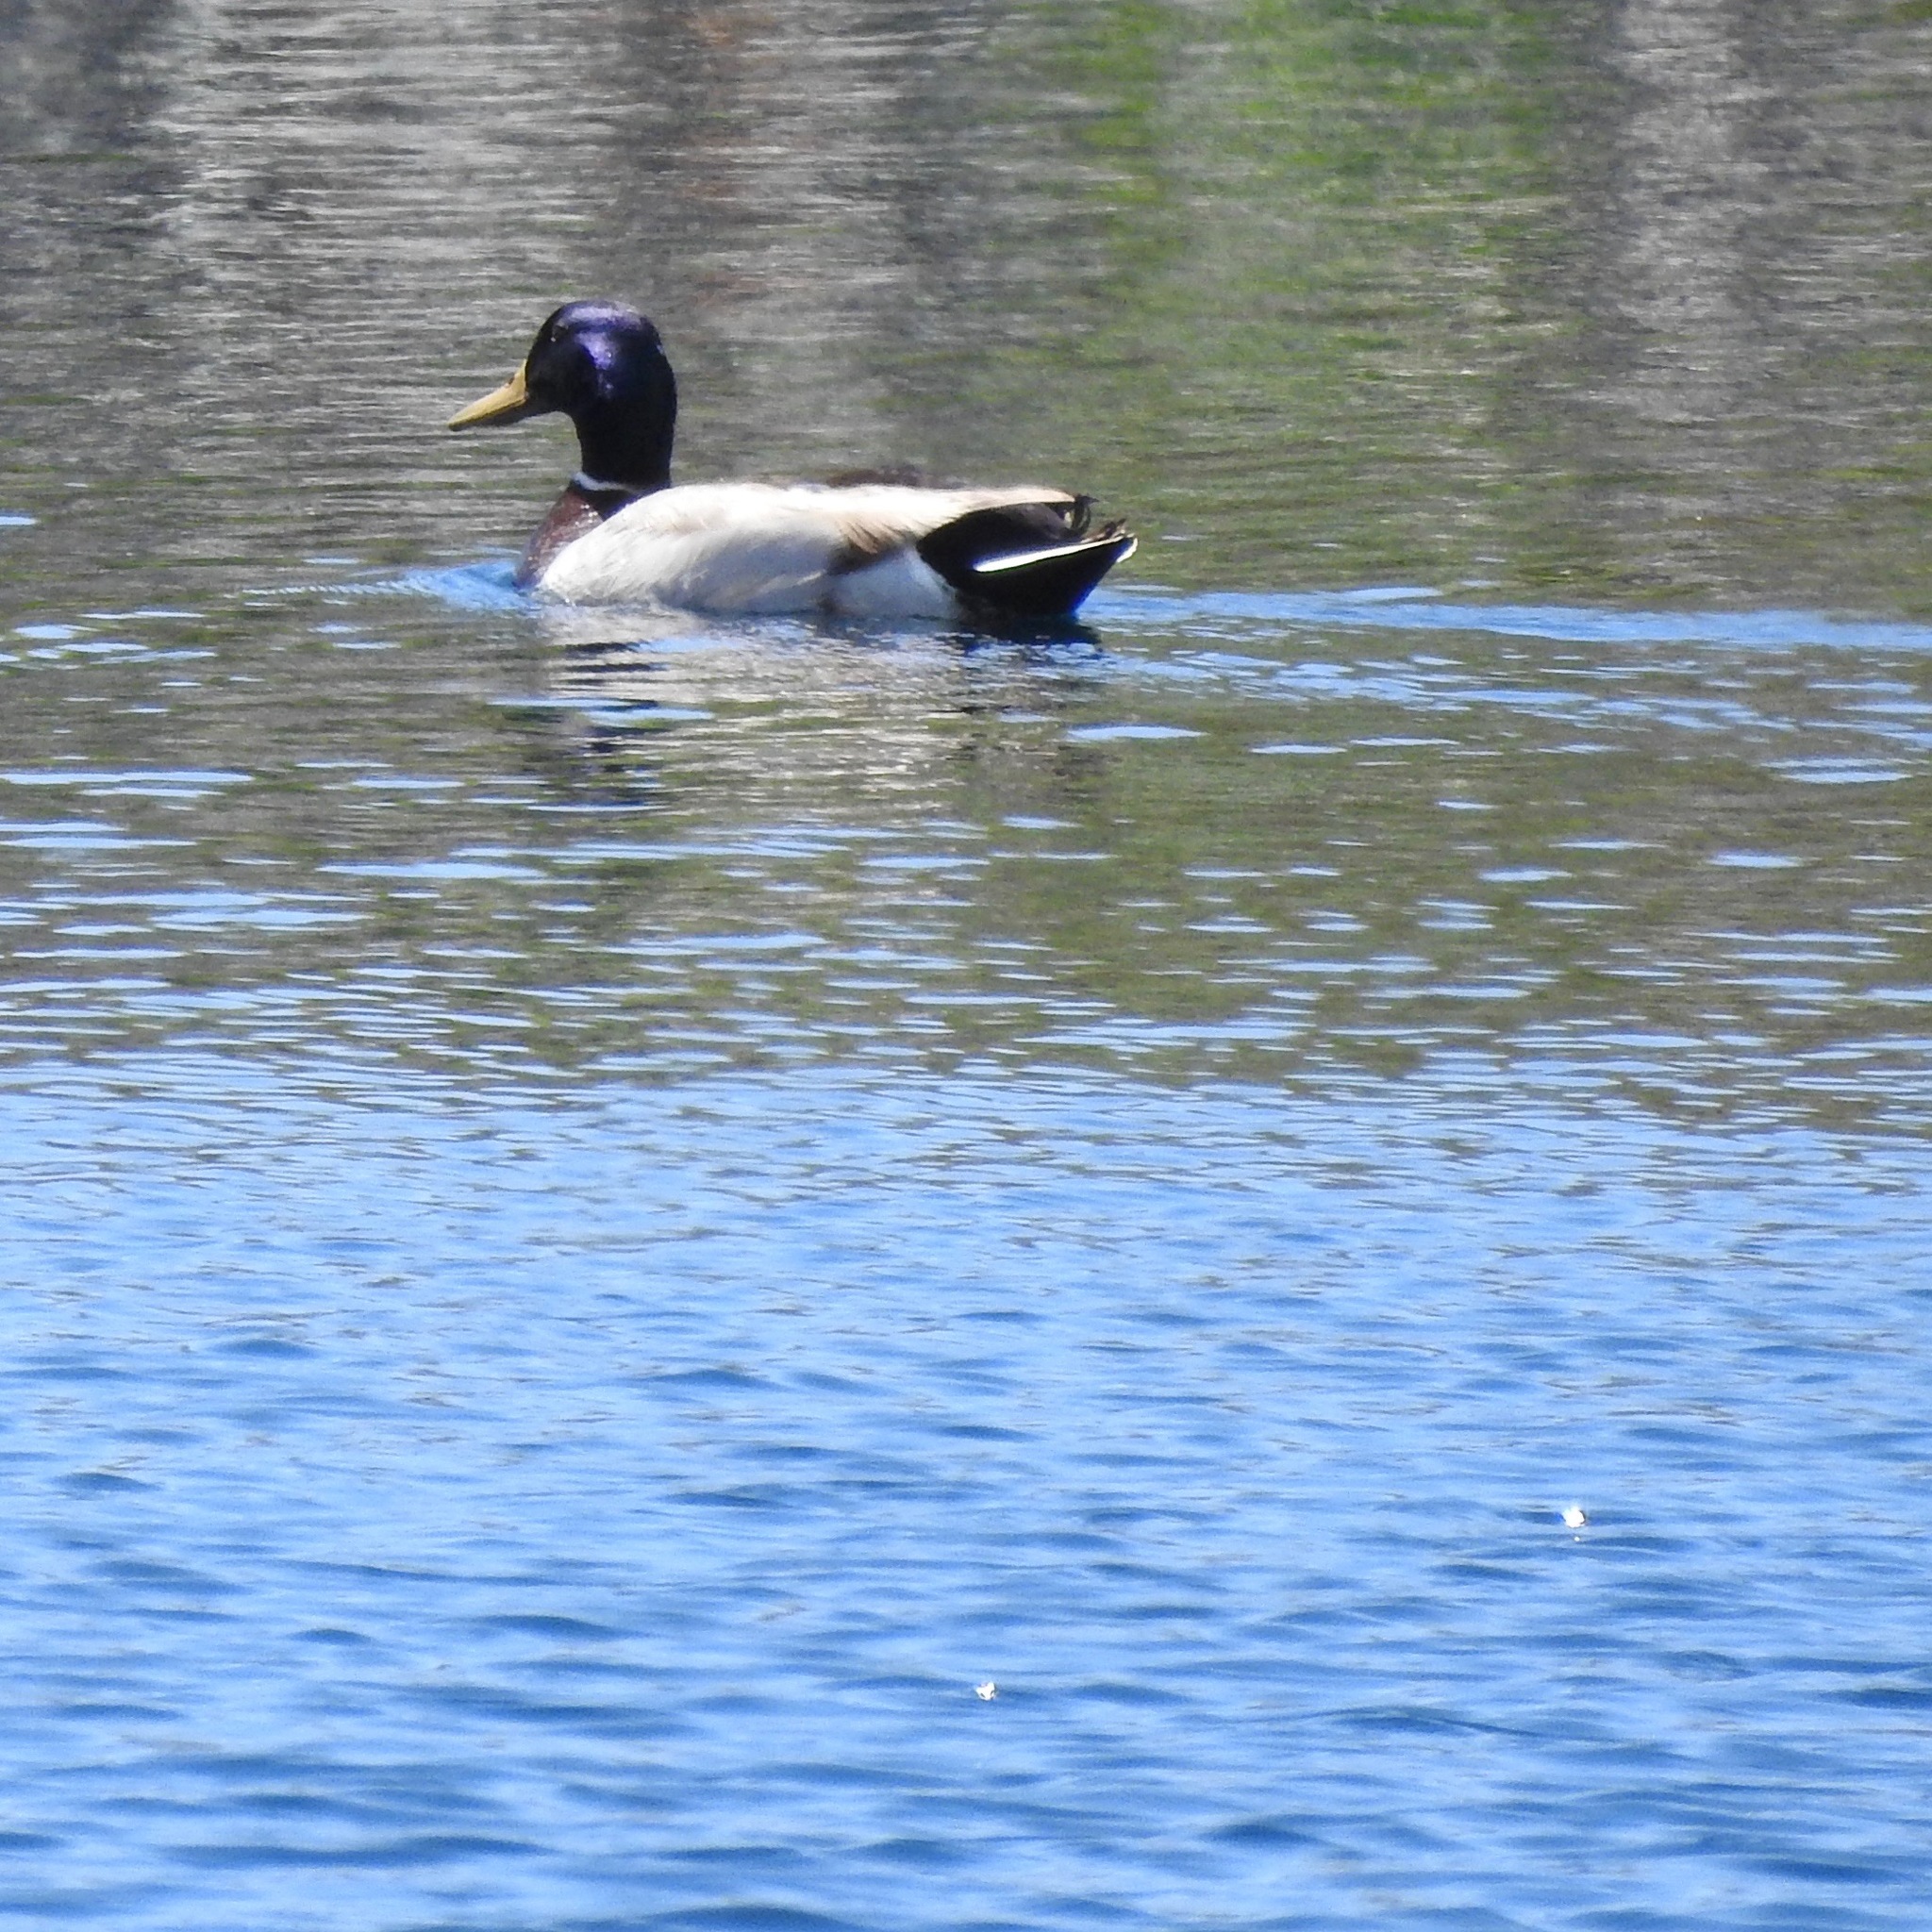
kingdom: Animalia
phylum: Chordata
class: Aves
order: Anseriformes
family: Anatidae
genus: Anas
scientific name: Anas platyrhynchos
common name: Mallard
